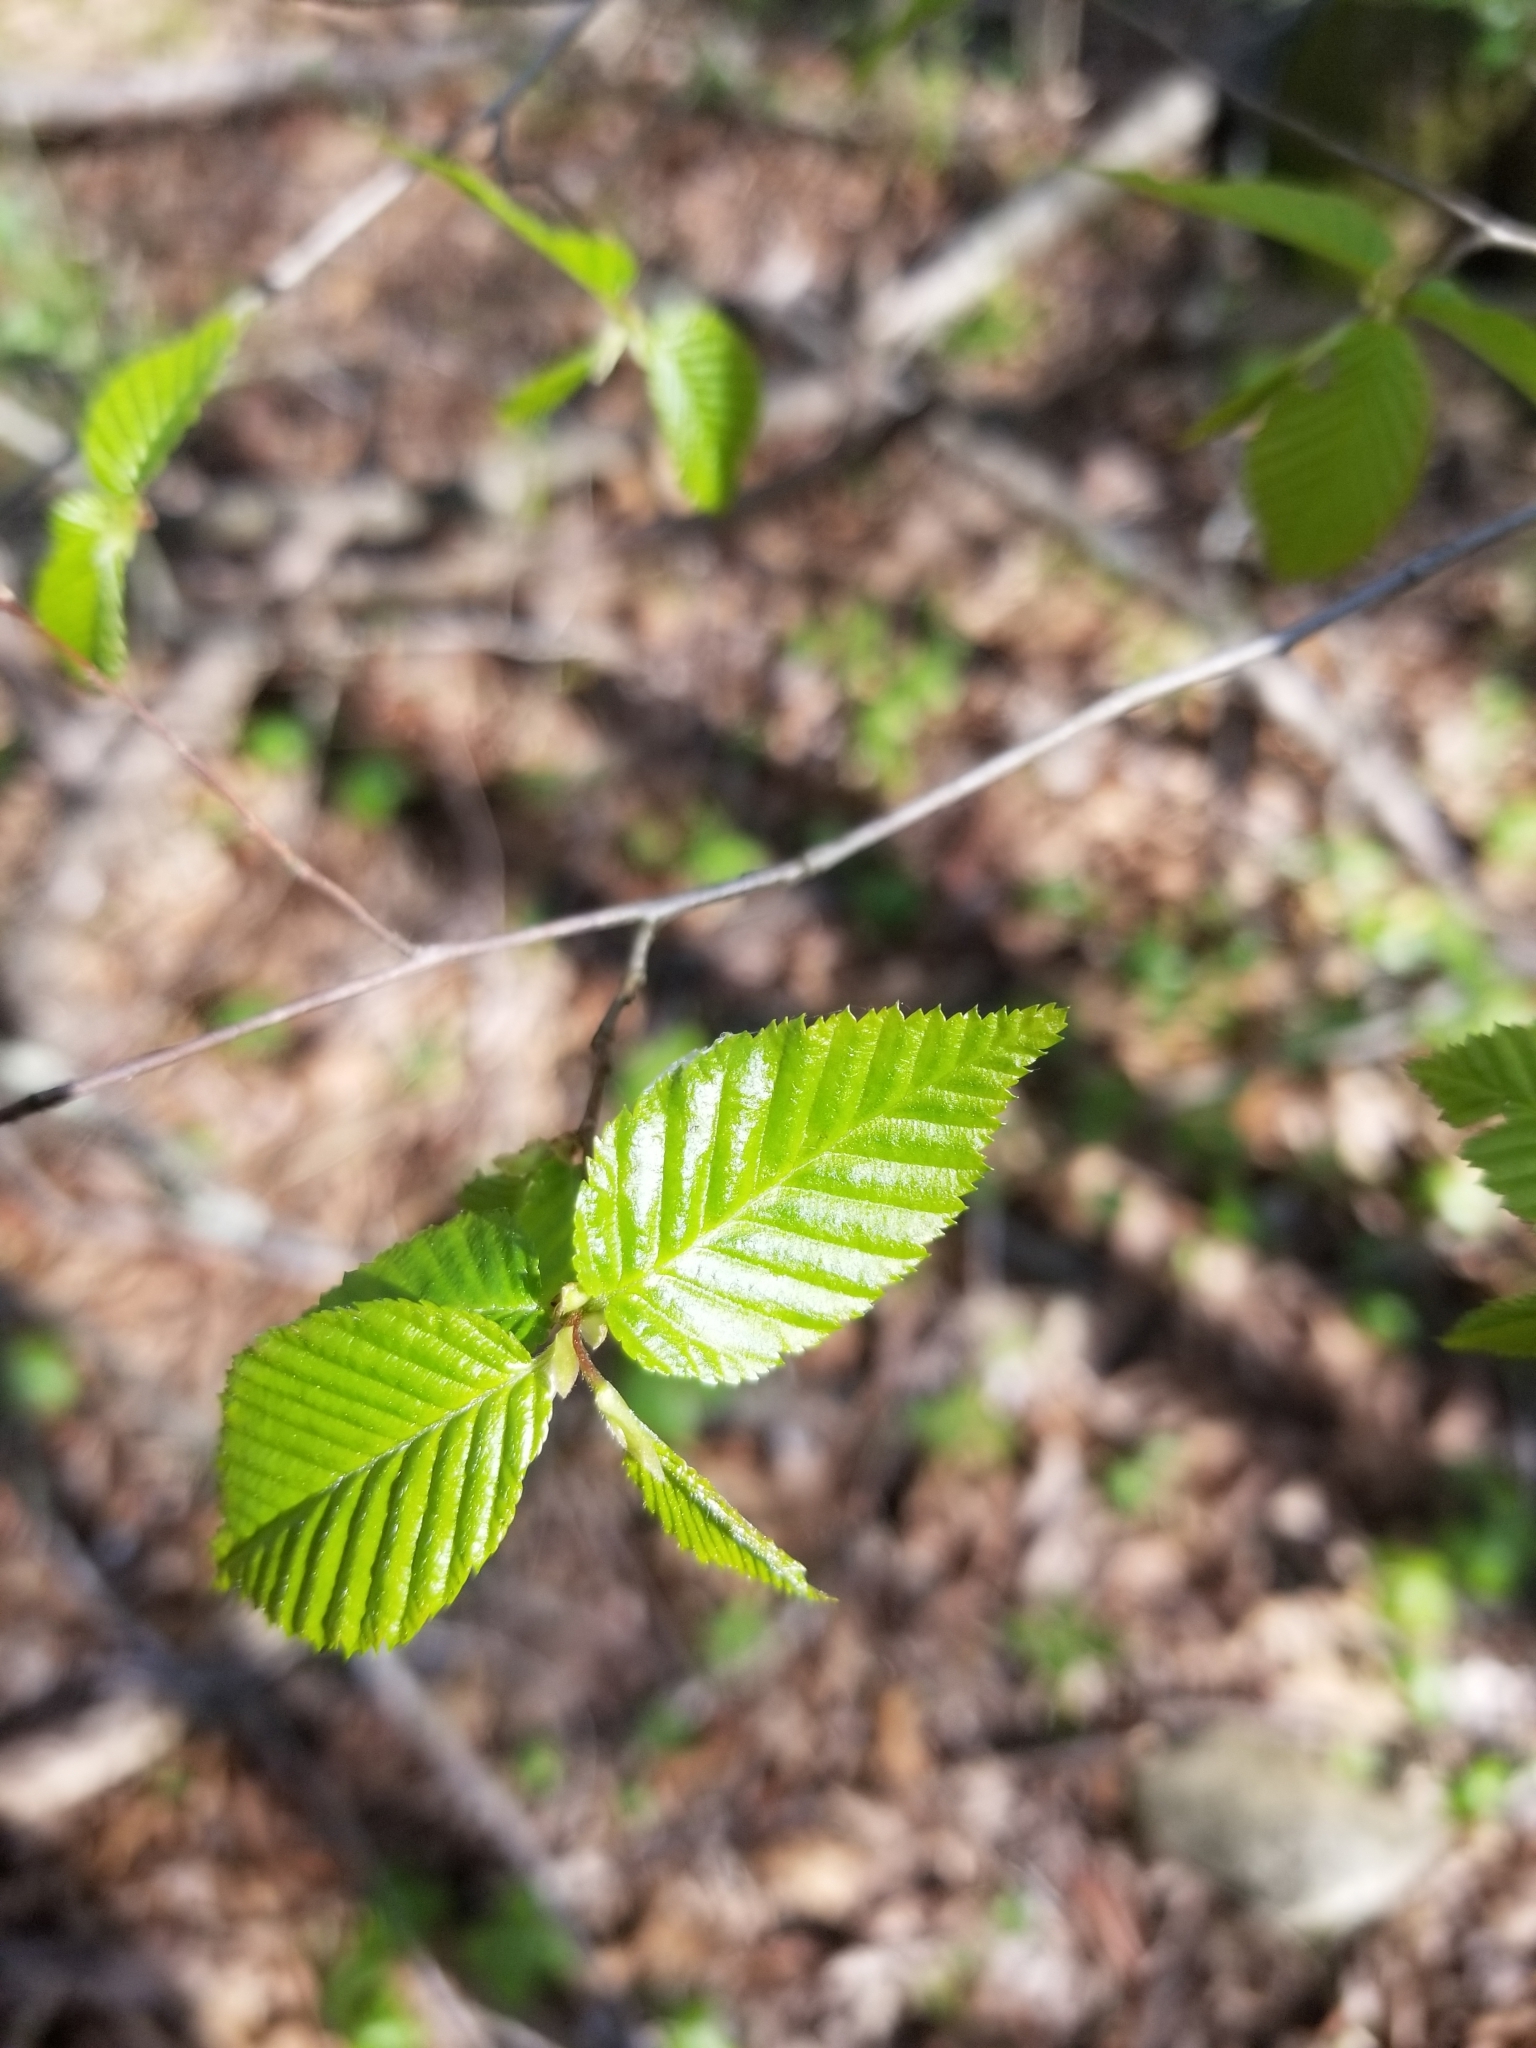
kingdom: Plantae
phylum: Tracheophyta
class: Magnoliopsida
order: Fagales
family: Betulaceae
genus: Carpinus
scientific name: Carpinus caroliniana
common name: American hornbeam
